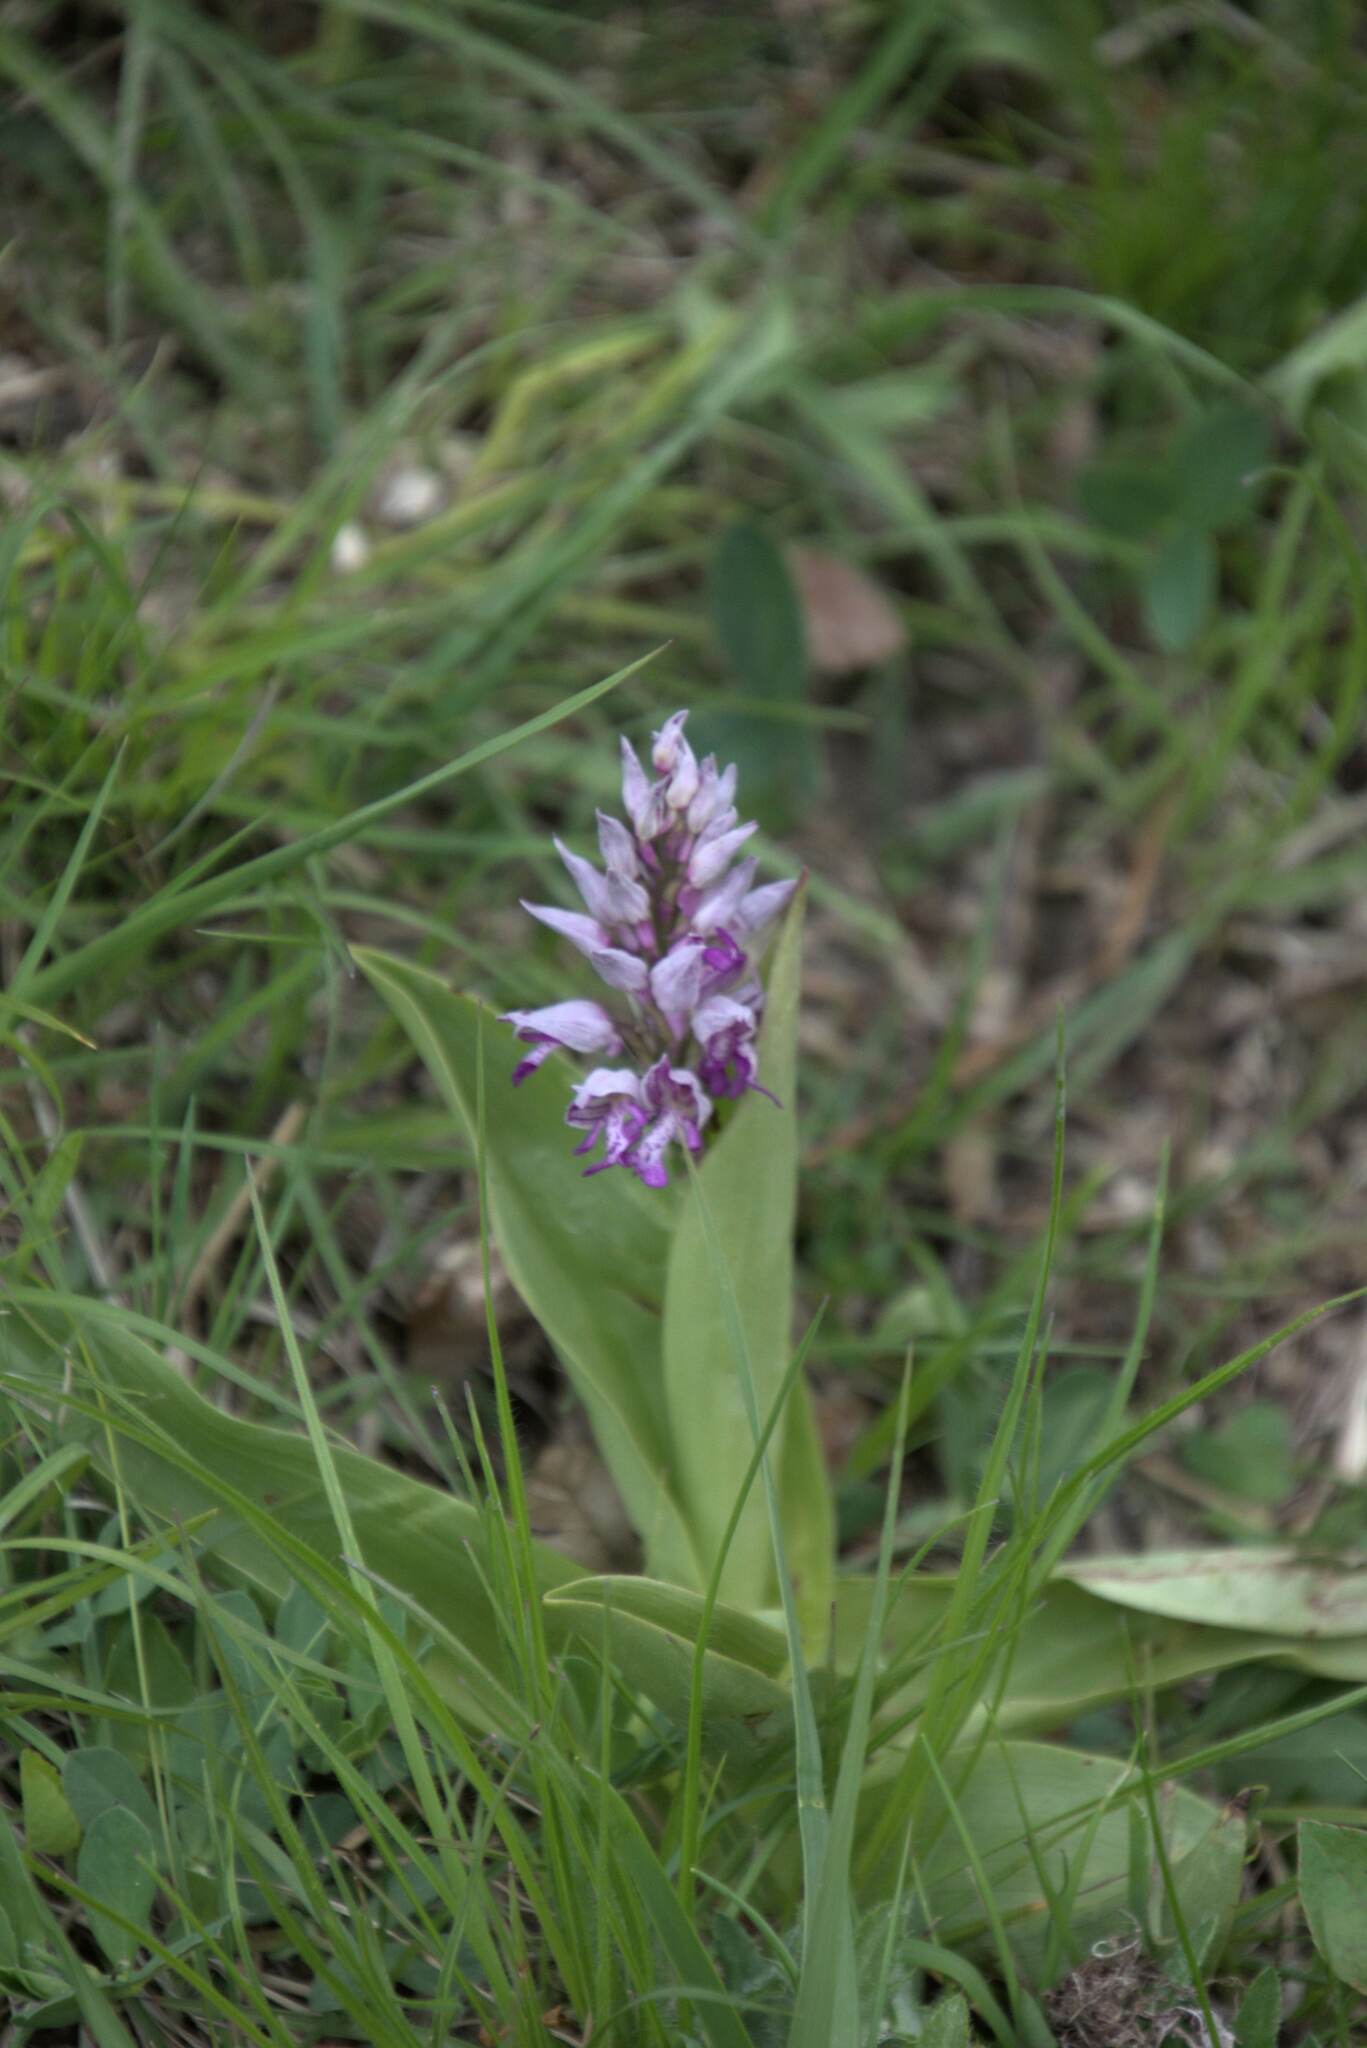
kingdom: Plantae
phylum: Tracheophyta
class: Liliopsida
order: Asparagales
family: Orchidaceae
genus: Orchis
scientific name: Orchis militaris
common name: Military orchid
